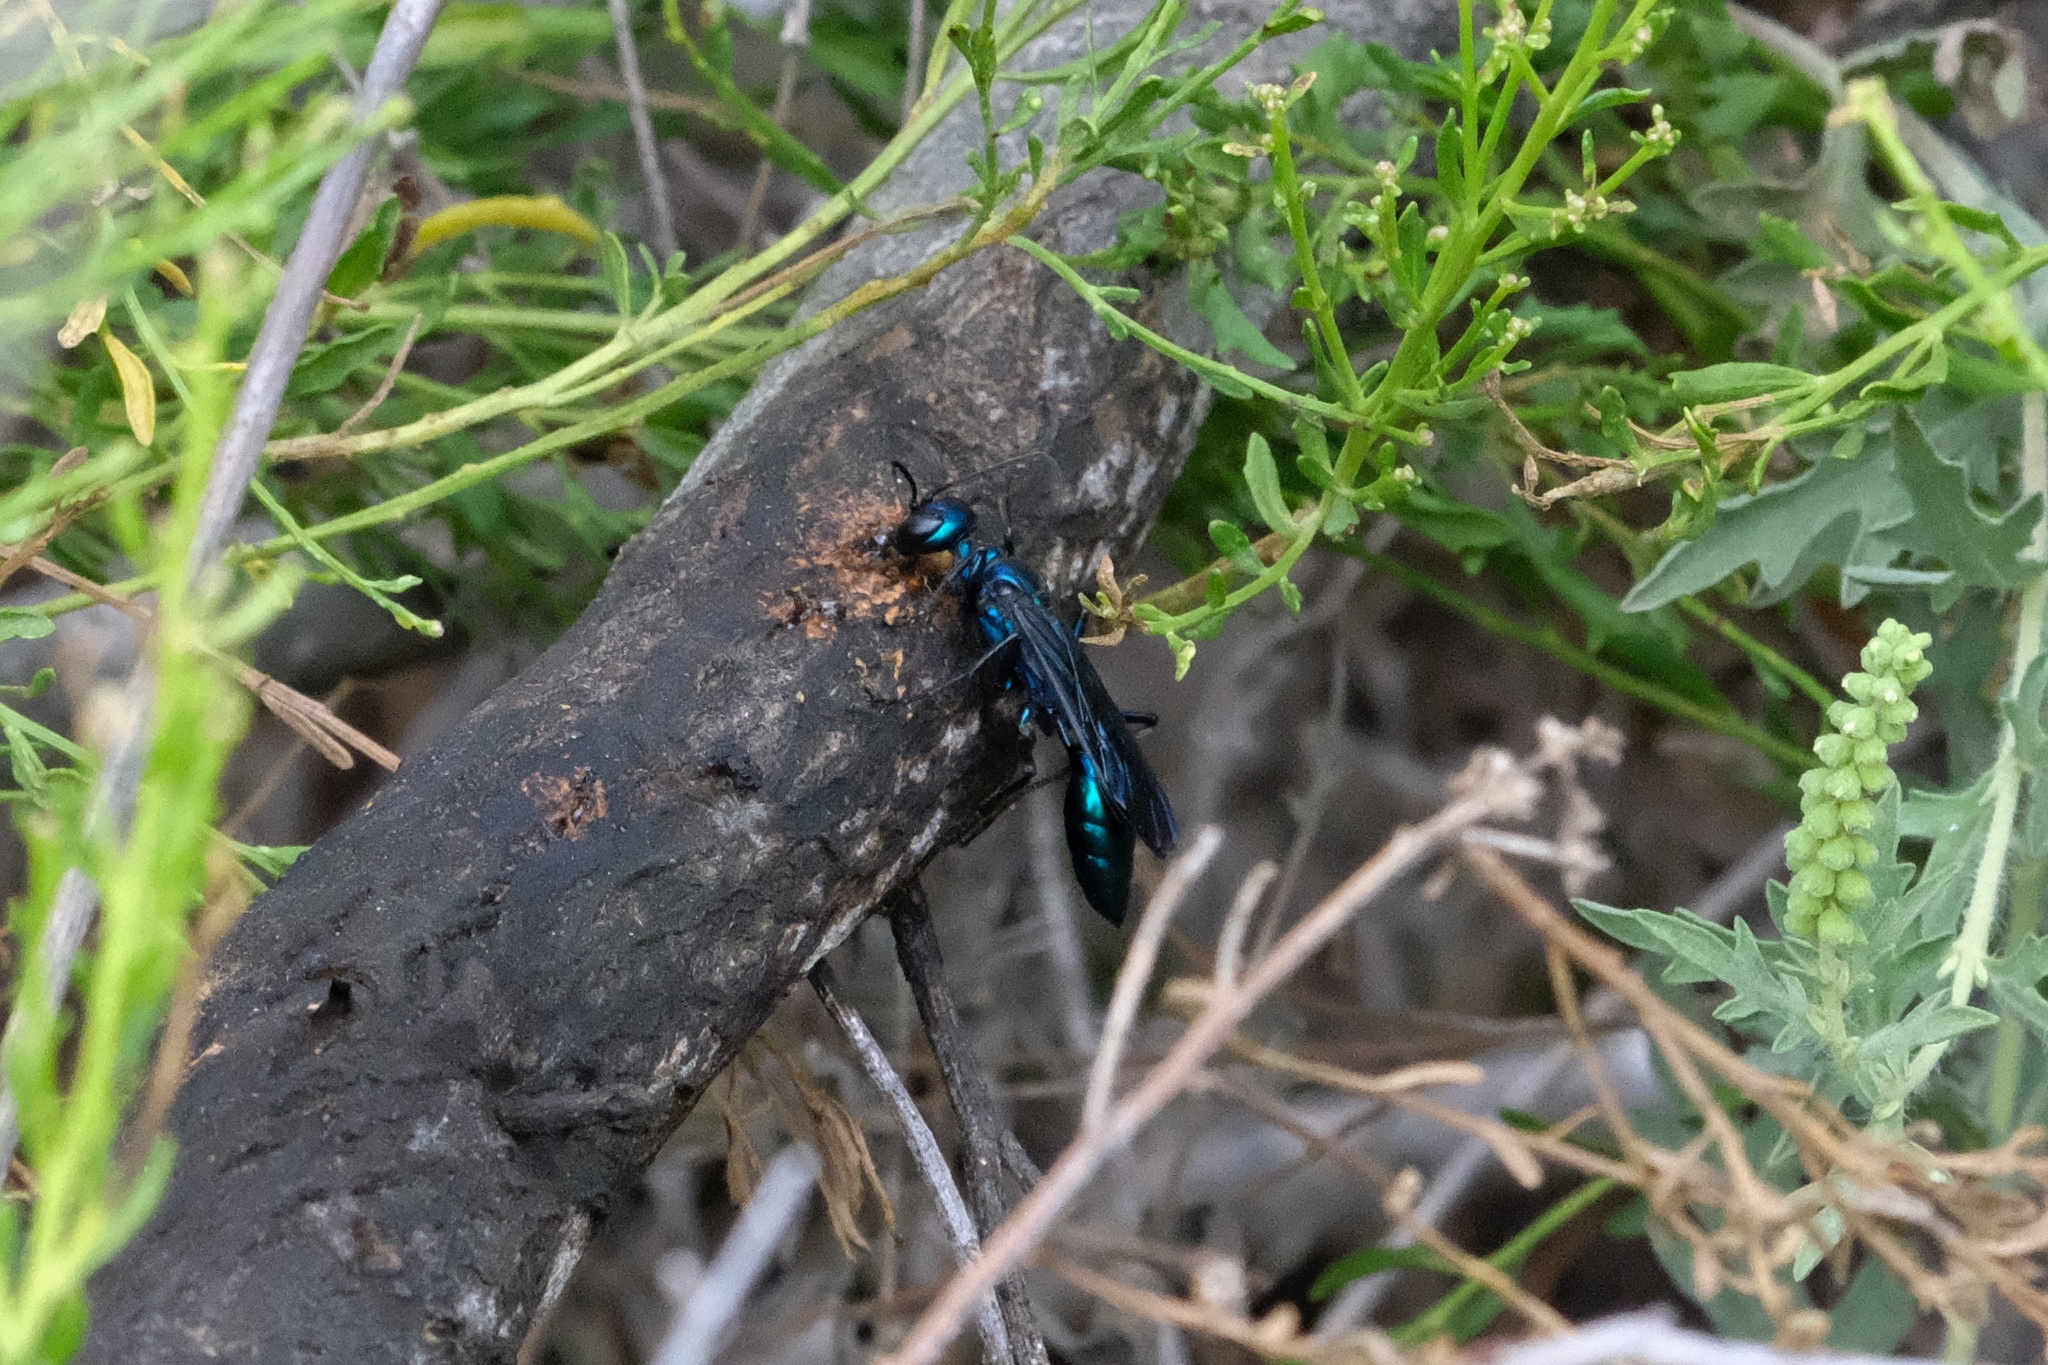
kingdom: Animalia
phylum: Arthropoda
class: Insecta
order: Hymenoptera
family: Sphecidae
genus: Chlorion
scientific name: Chlorion aerarium
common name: Steel-blue cricket hunter
